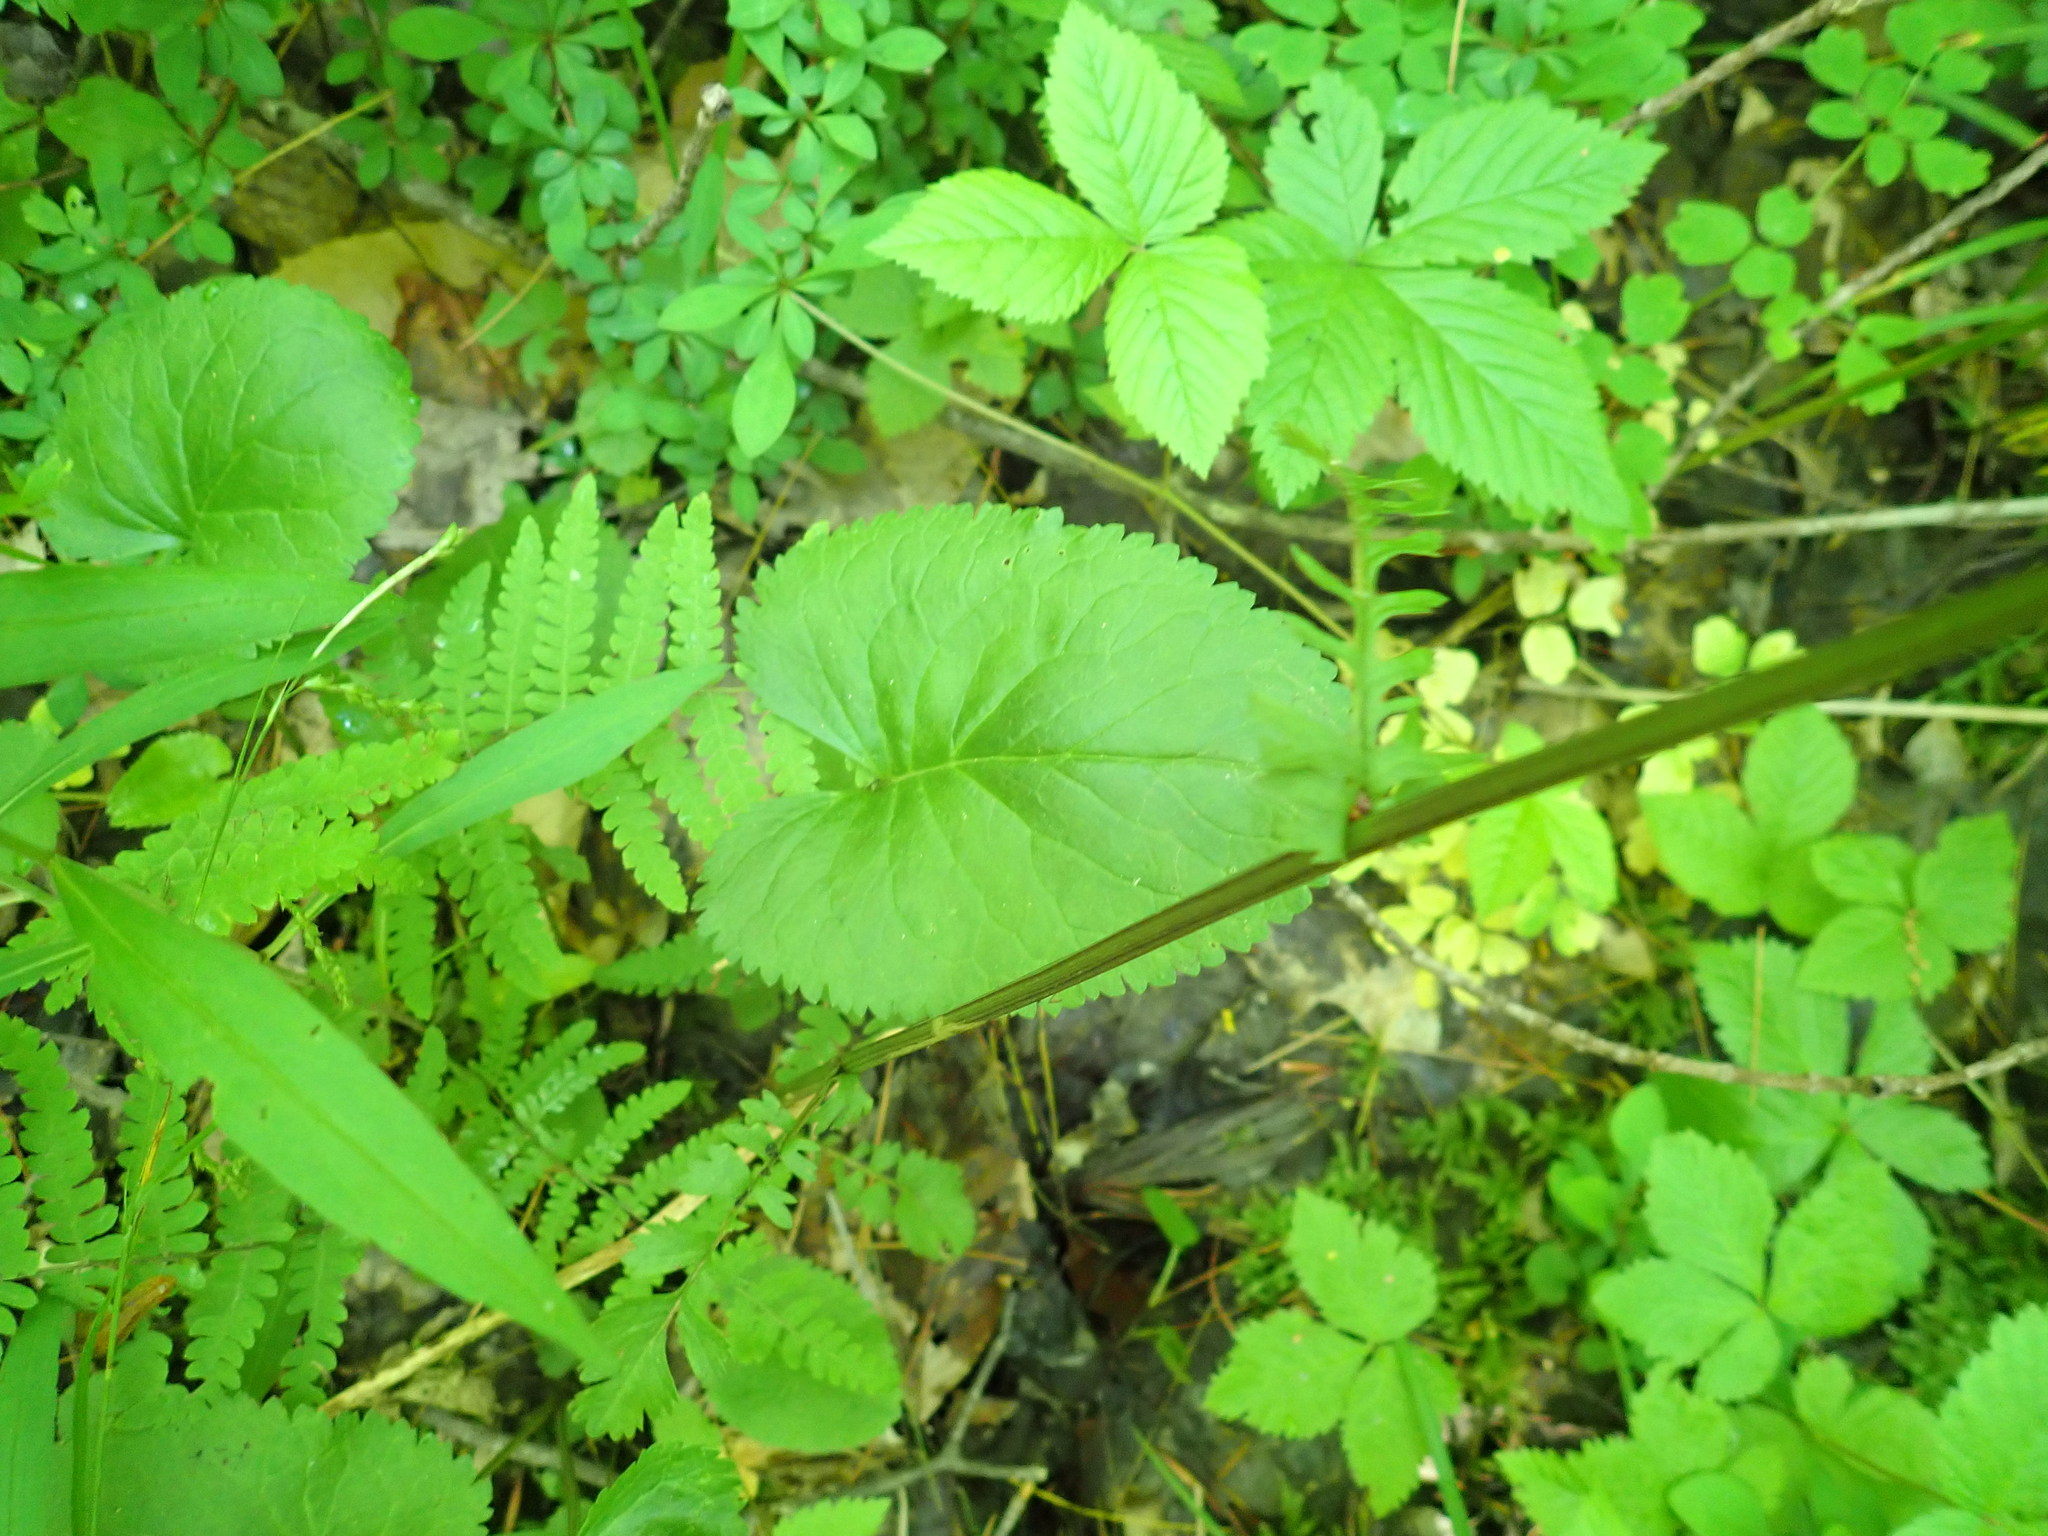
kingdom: Plantae
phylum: Tracheophyta
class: Magnoliopsida
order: Asterales
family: Asteraceae
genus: Packera
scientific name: Packera aurea
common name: Golden groundsel
